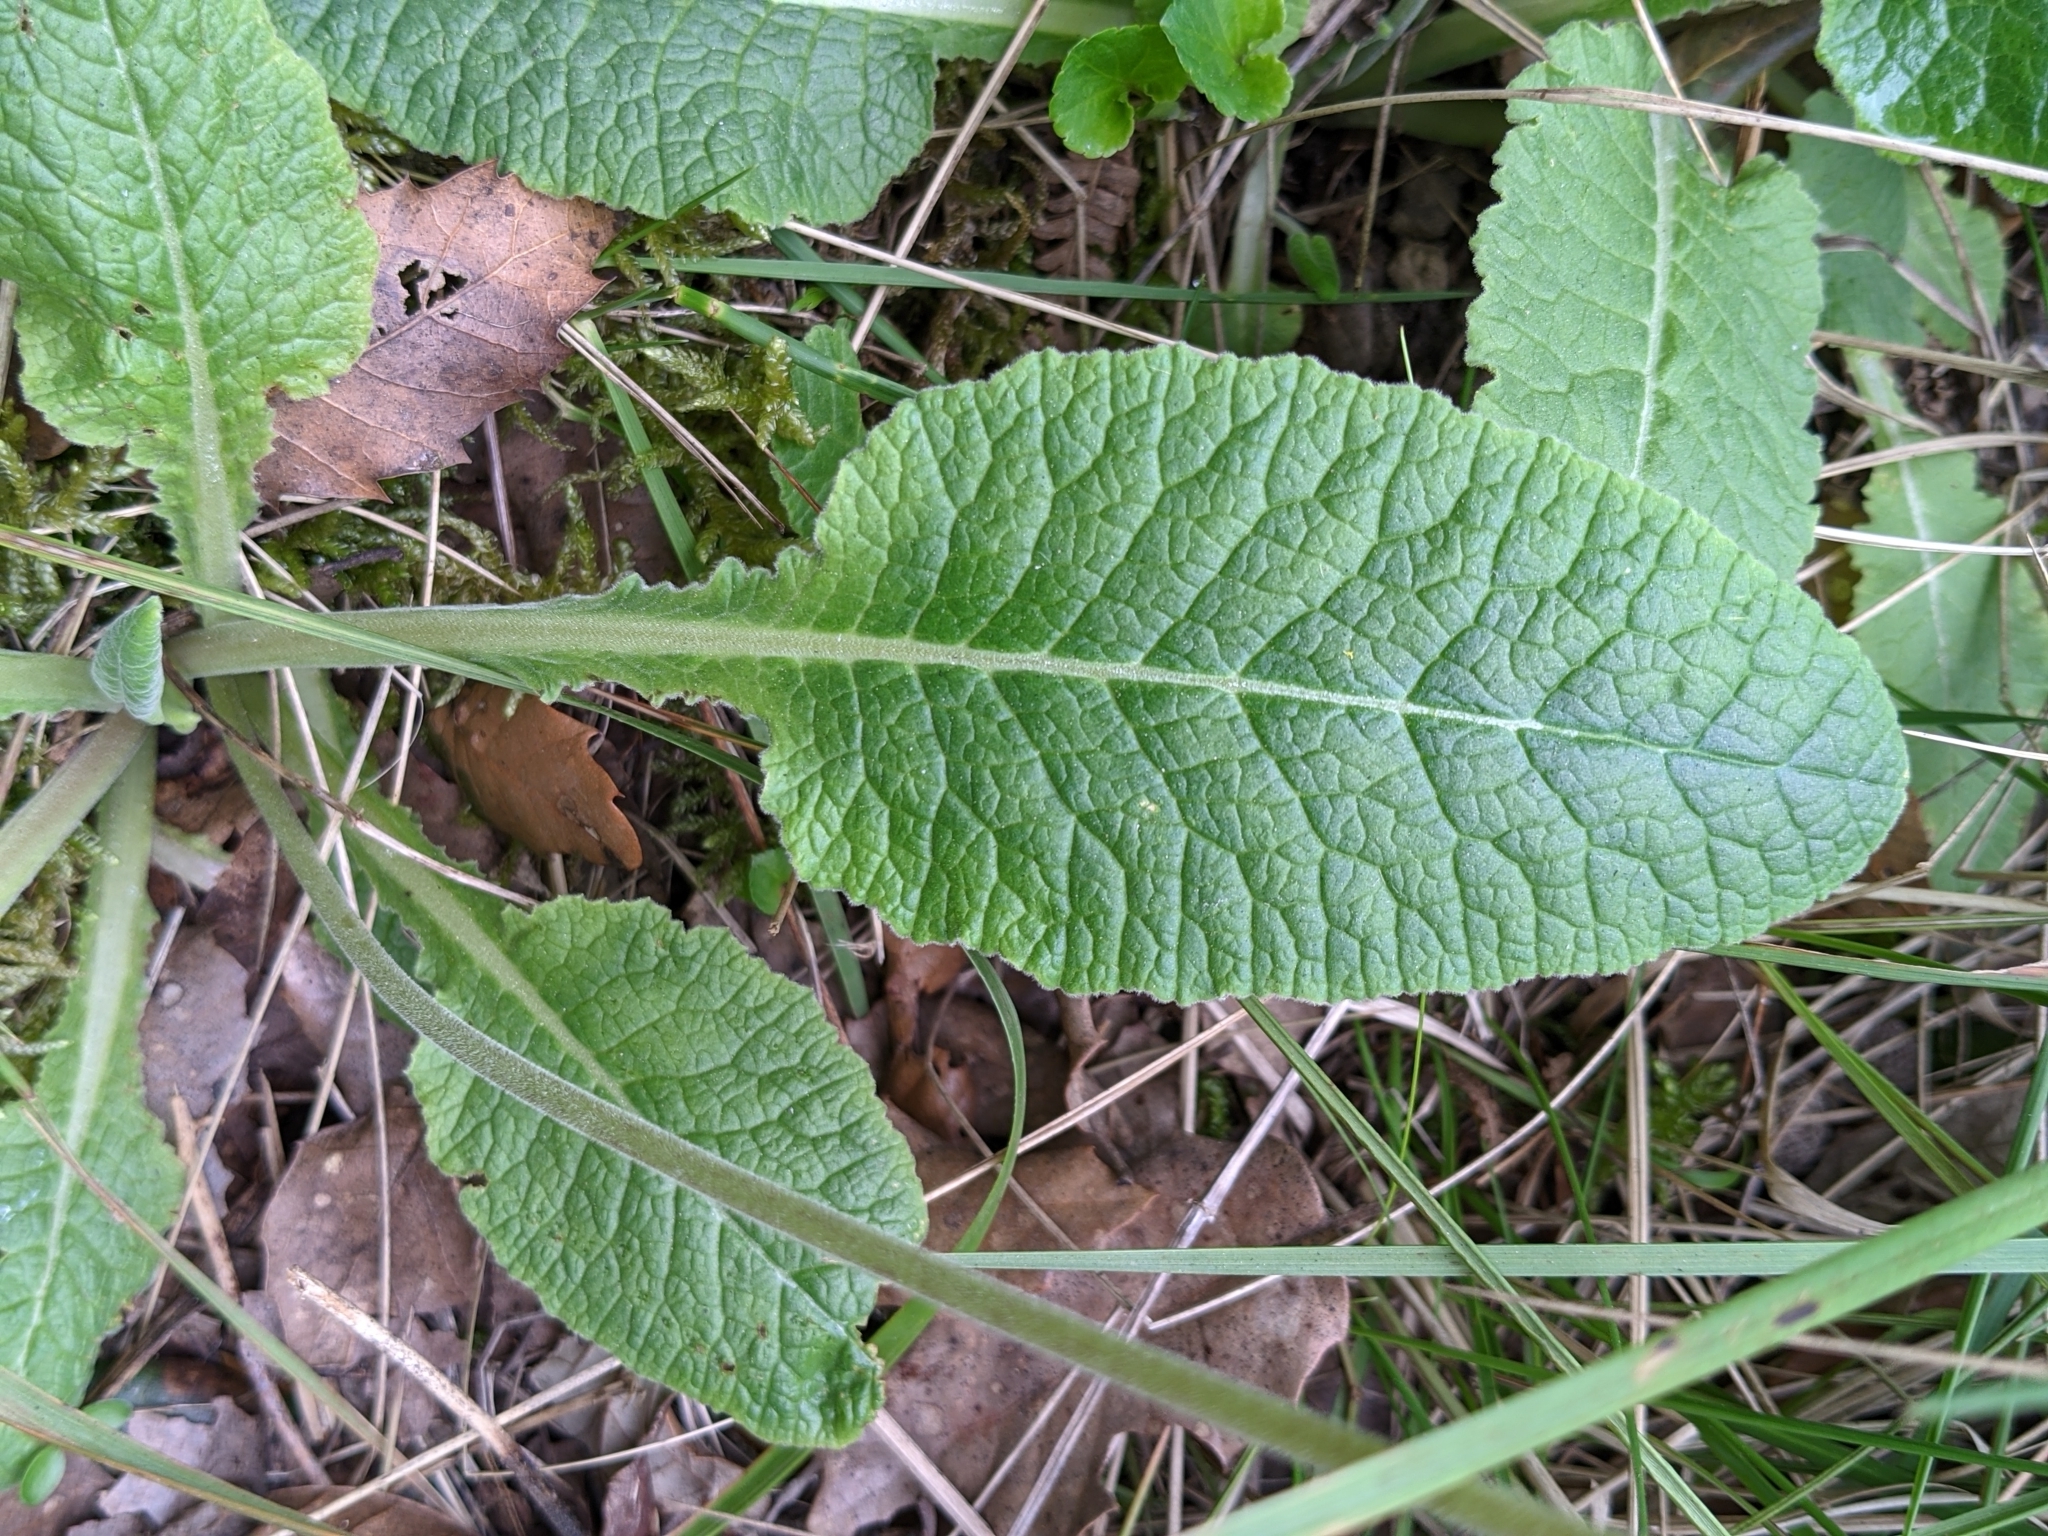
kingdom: Plantae
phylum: Tracheophyta
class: Magnoliopsida
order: Ericales
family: Primulaceae
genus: Primula
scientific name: Primula veris
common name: Cowslip
